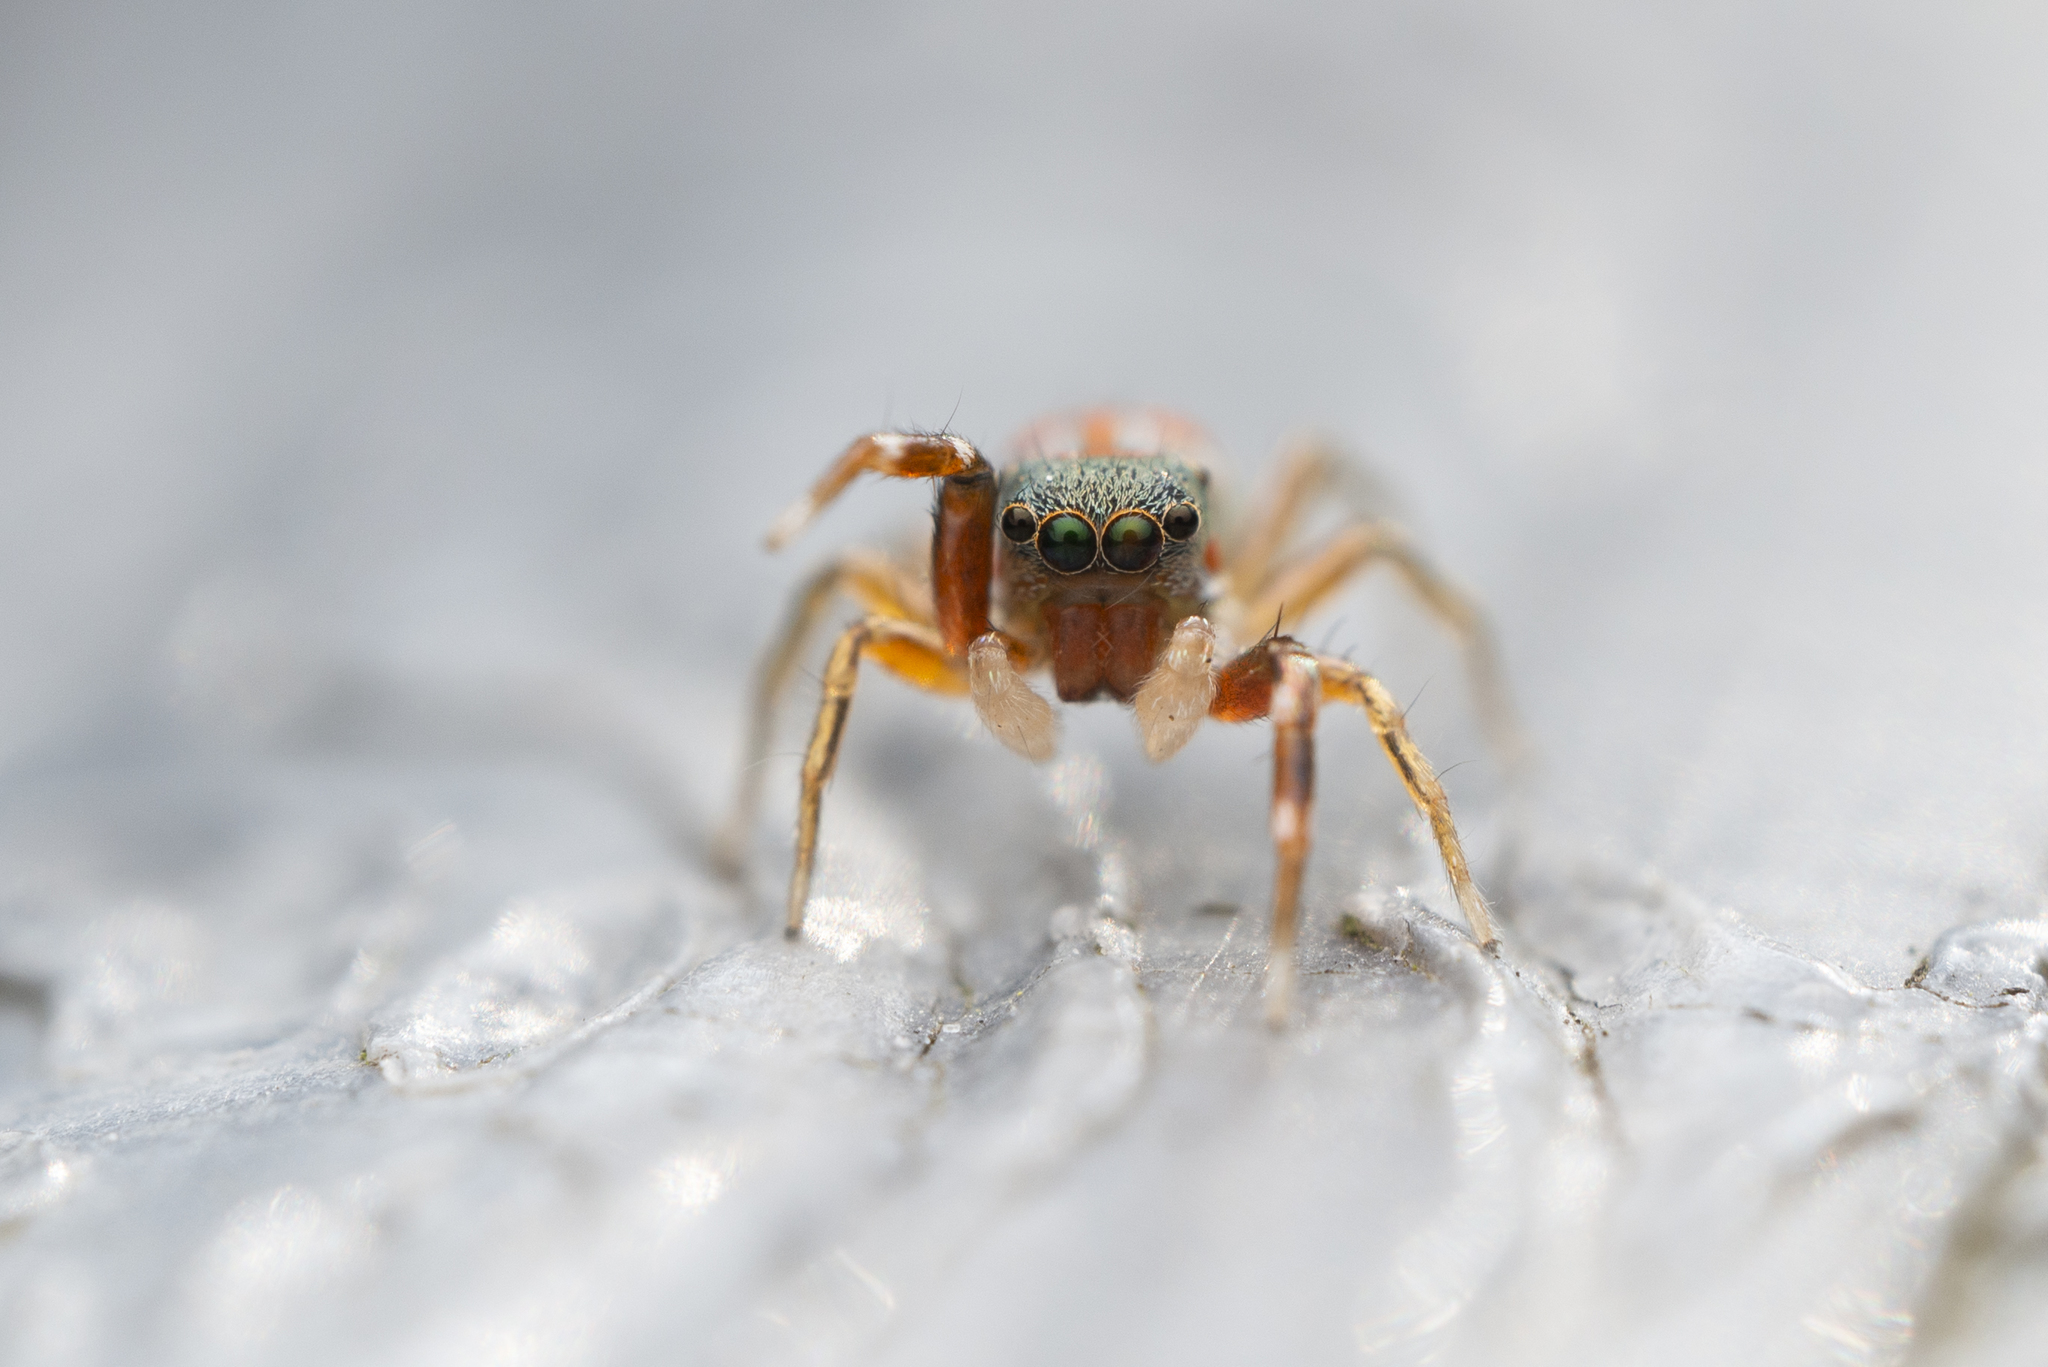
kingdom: Animalia
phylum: Arthropoda
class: Arachnida
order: Araneae
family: Salticidae
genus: Siler
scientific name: Siler collingwoodi
